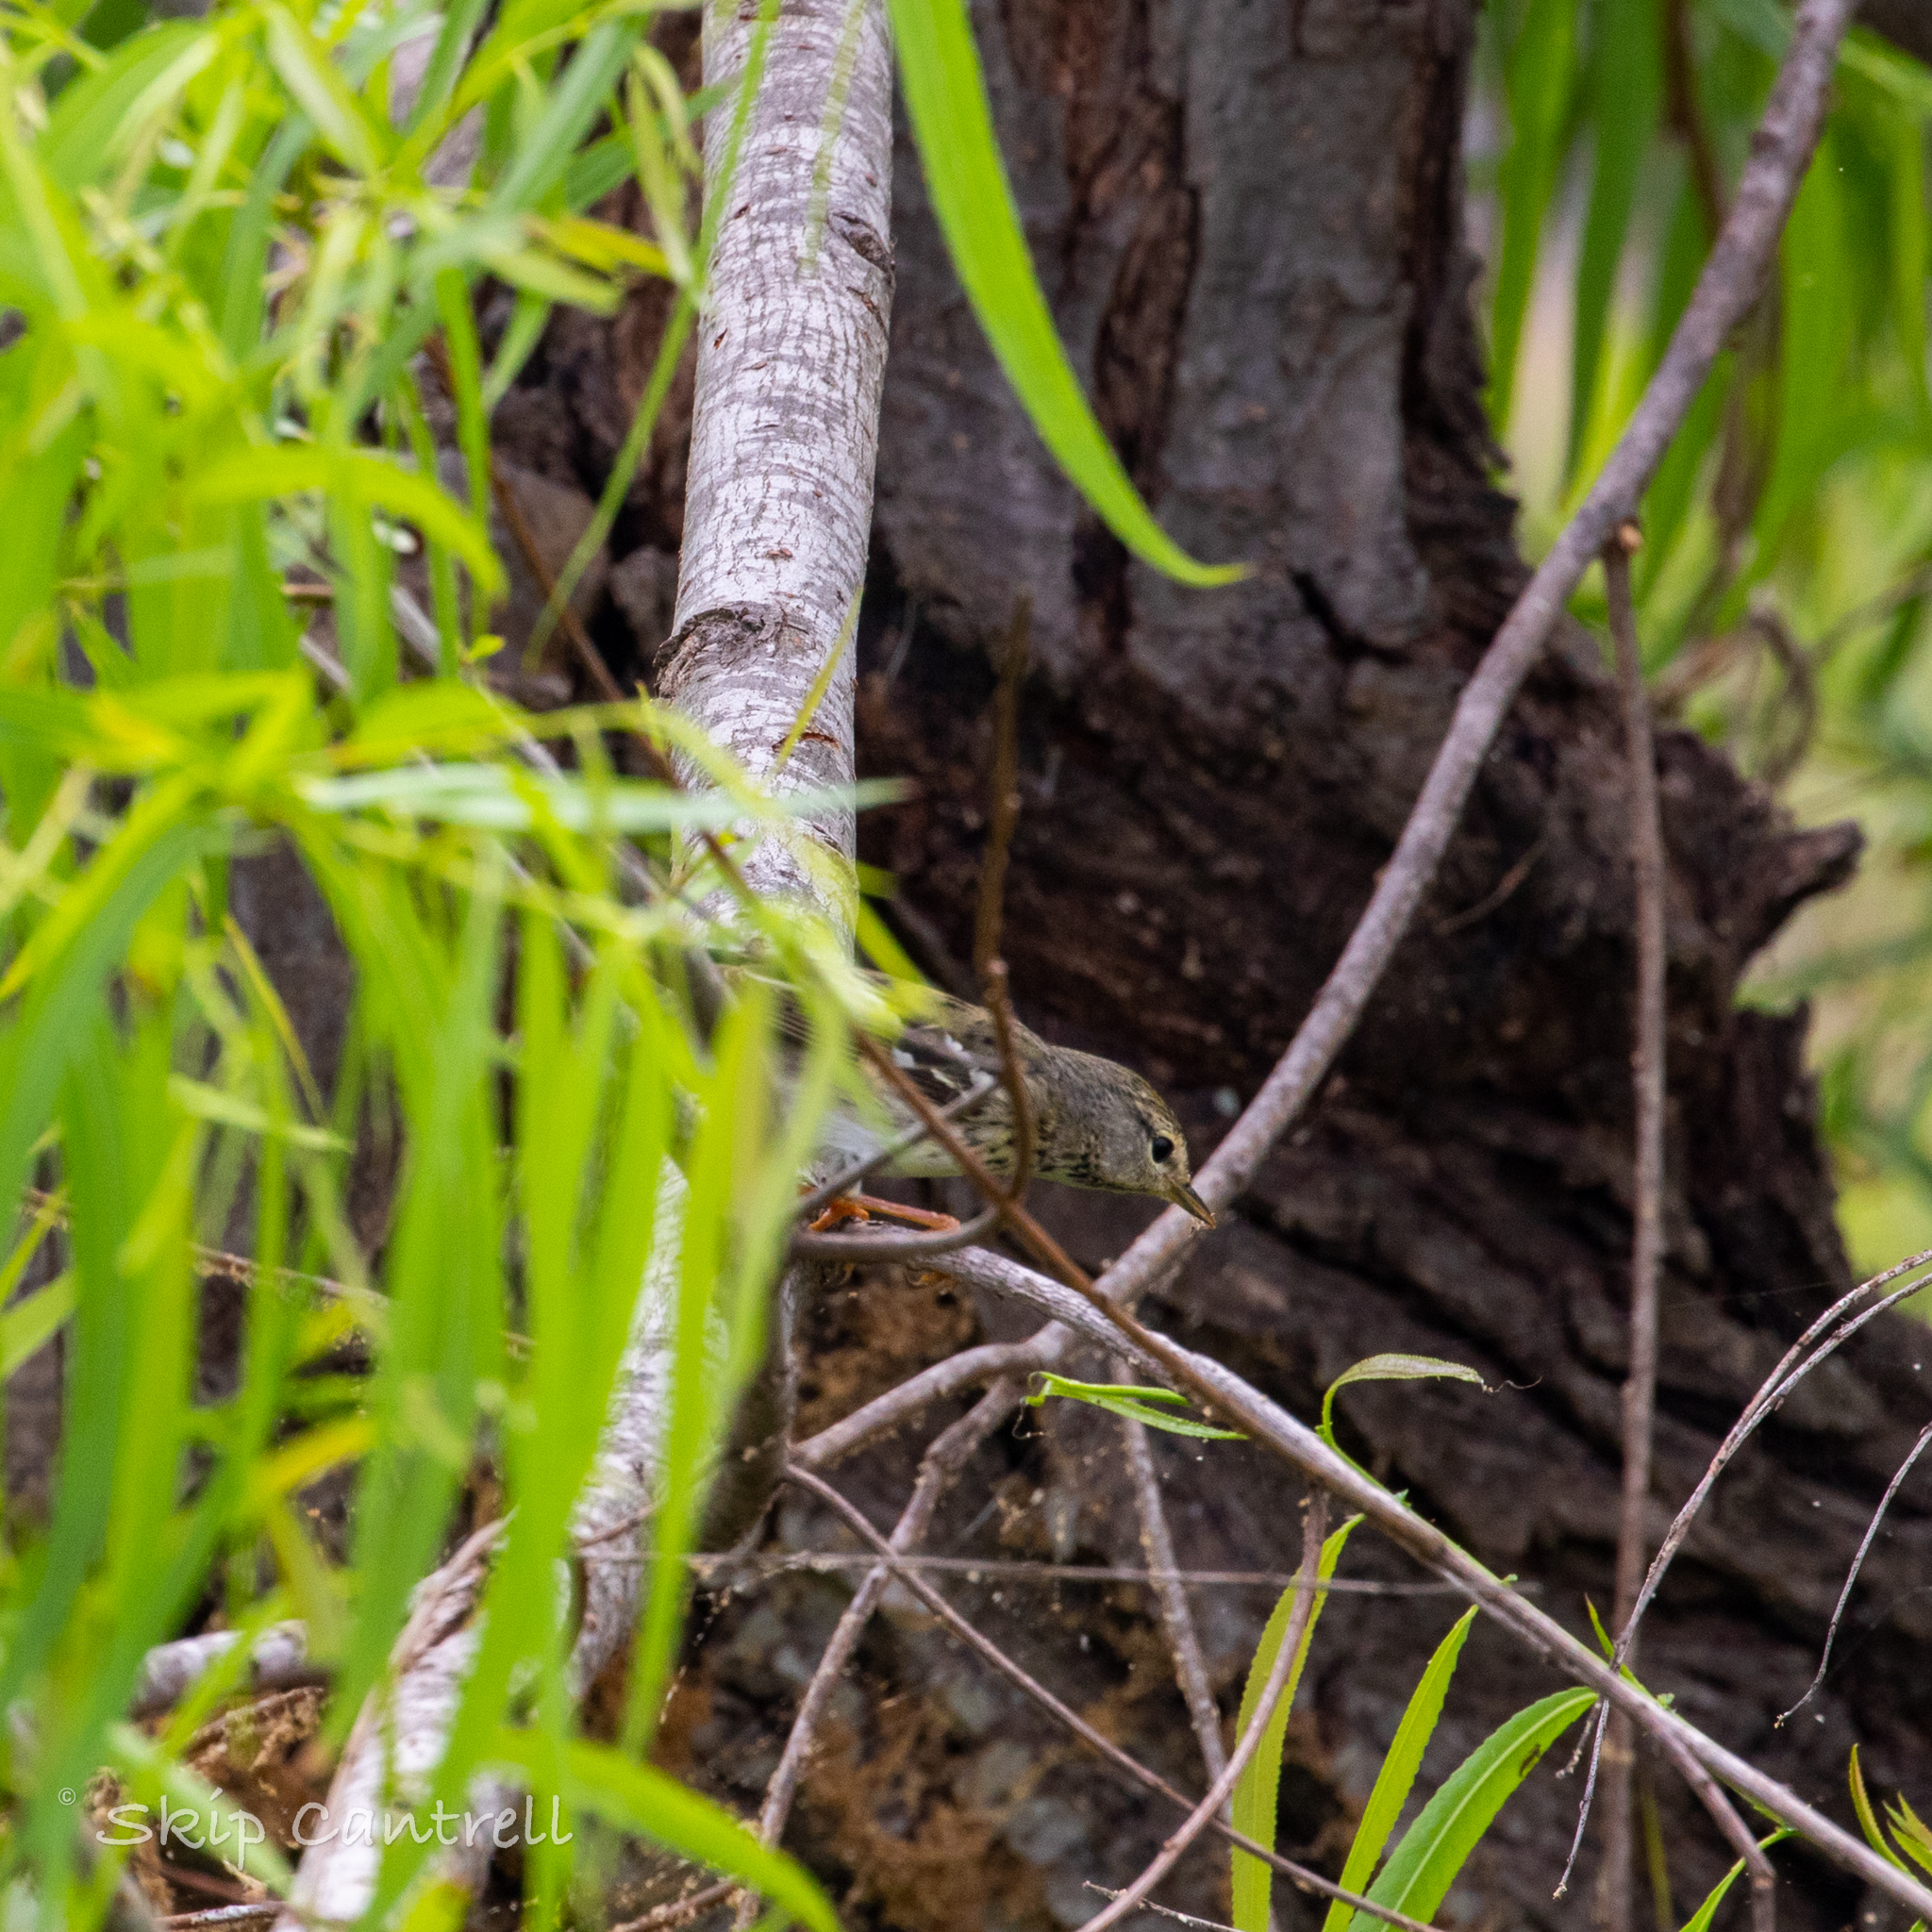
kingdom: Animalia
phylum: Chordata
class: Aves
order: Passeriformes
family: Parulidae
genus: Setophaga
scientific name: Setophaga striata
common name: Blackpoll warbler
